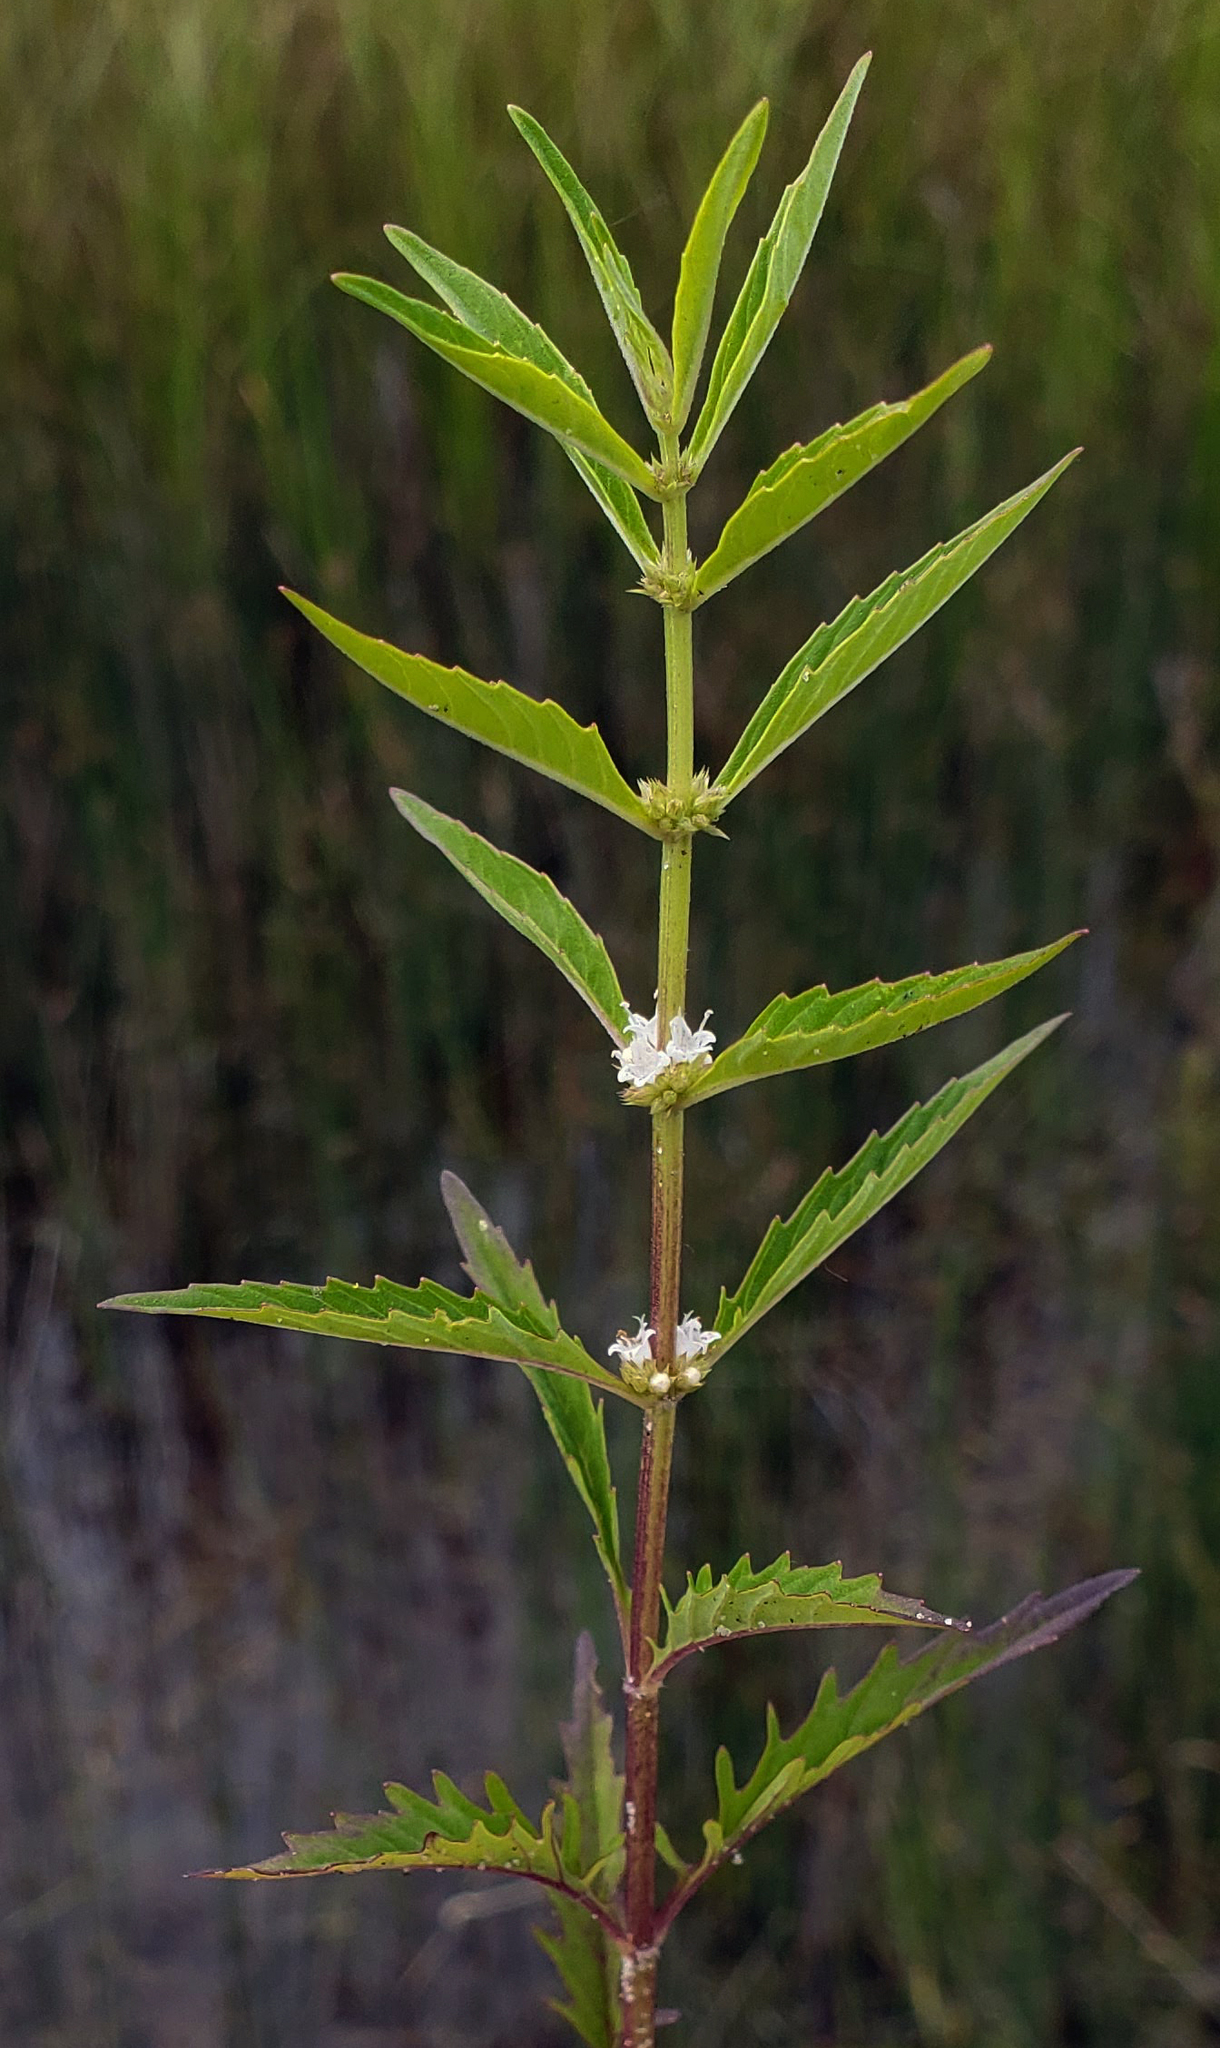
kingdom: Plantae
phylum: Tracheophyta
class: Magnoliopsida
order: Lamiales
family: Lamiaceae
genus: Lycopus
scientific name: Lycopus americanus
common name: American bugleweed
